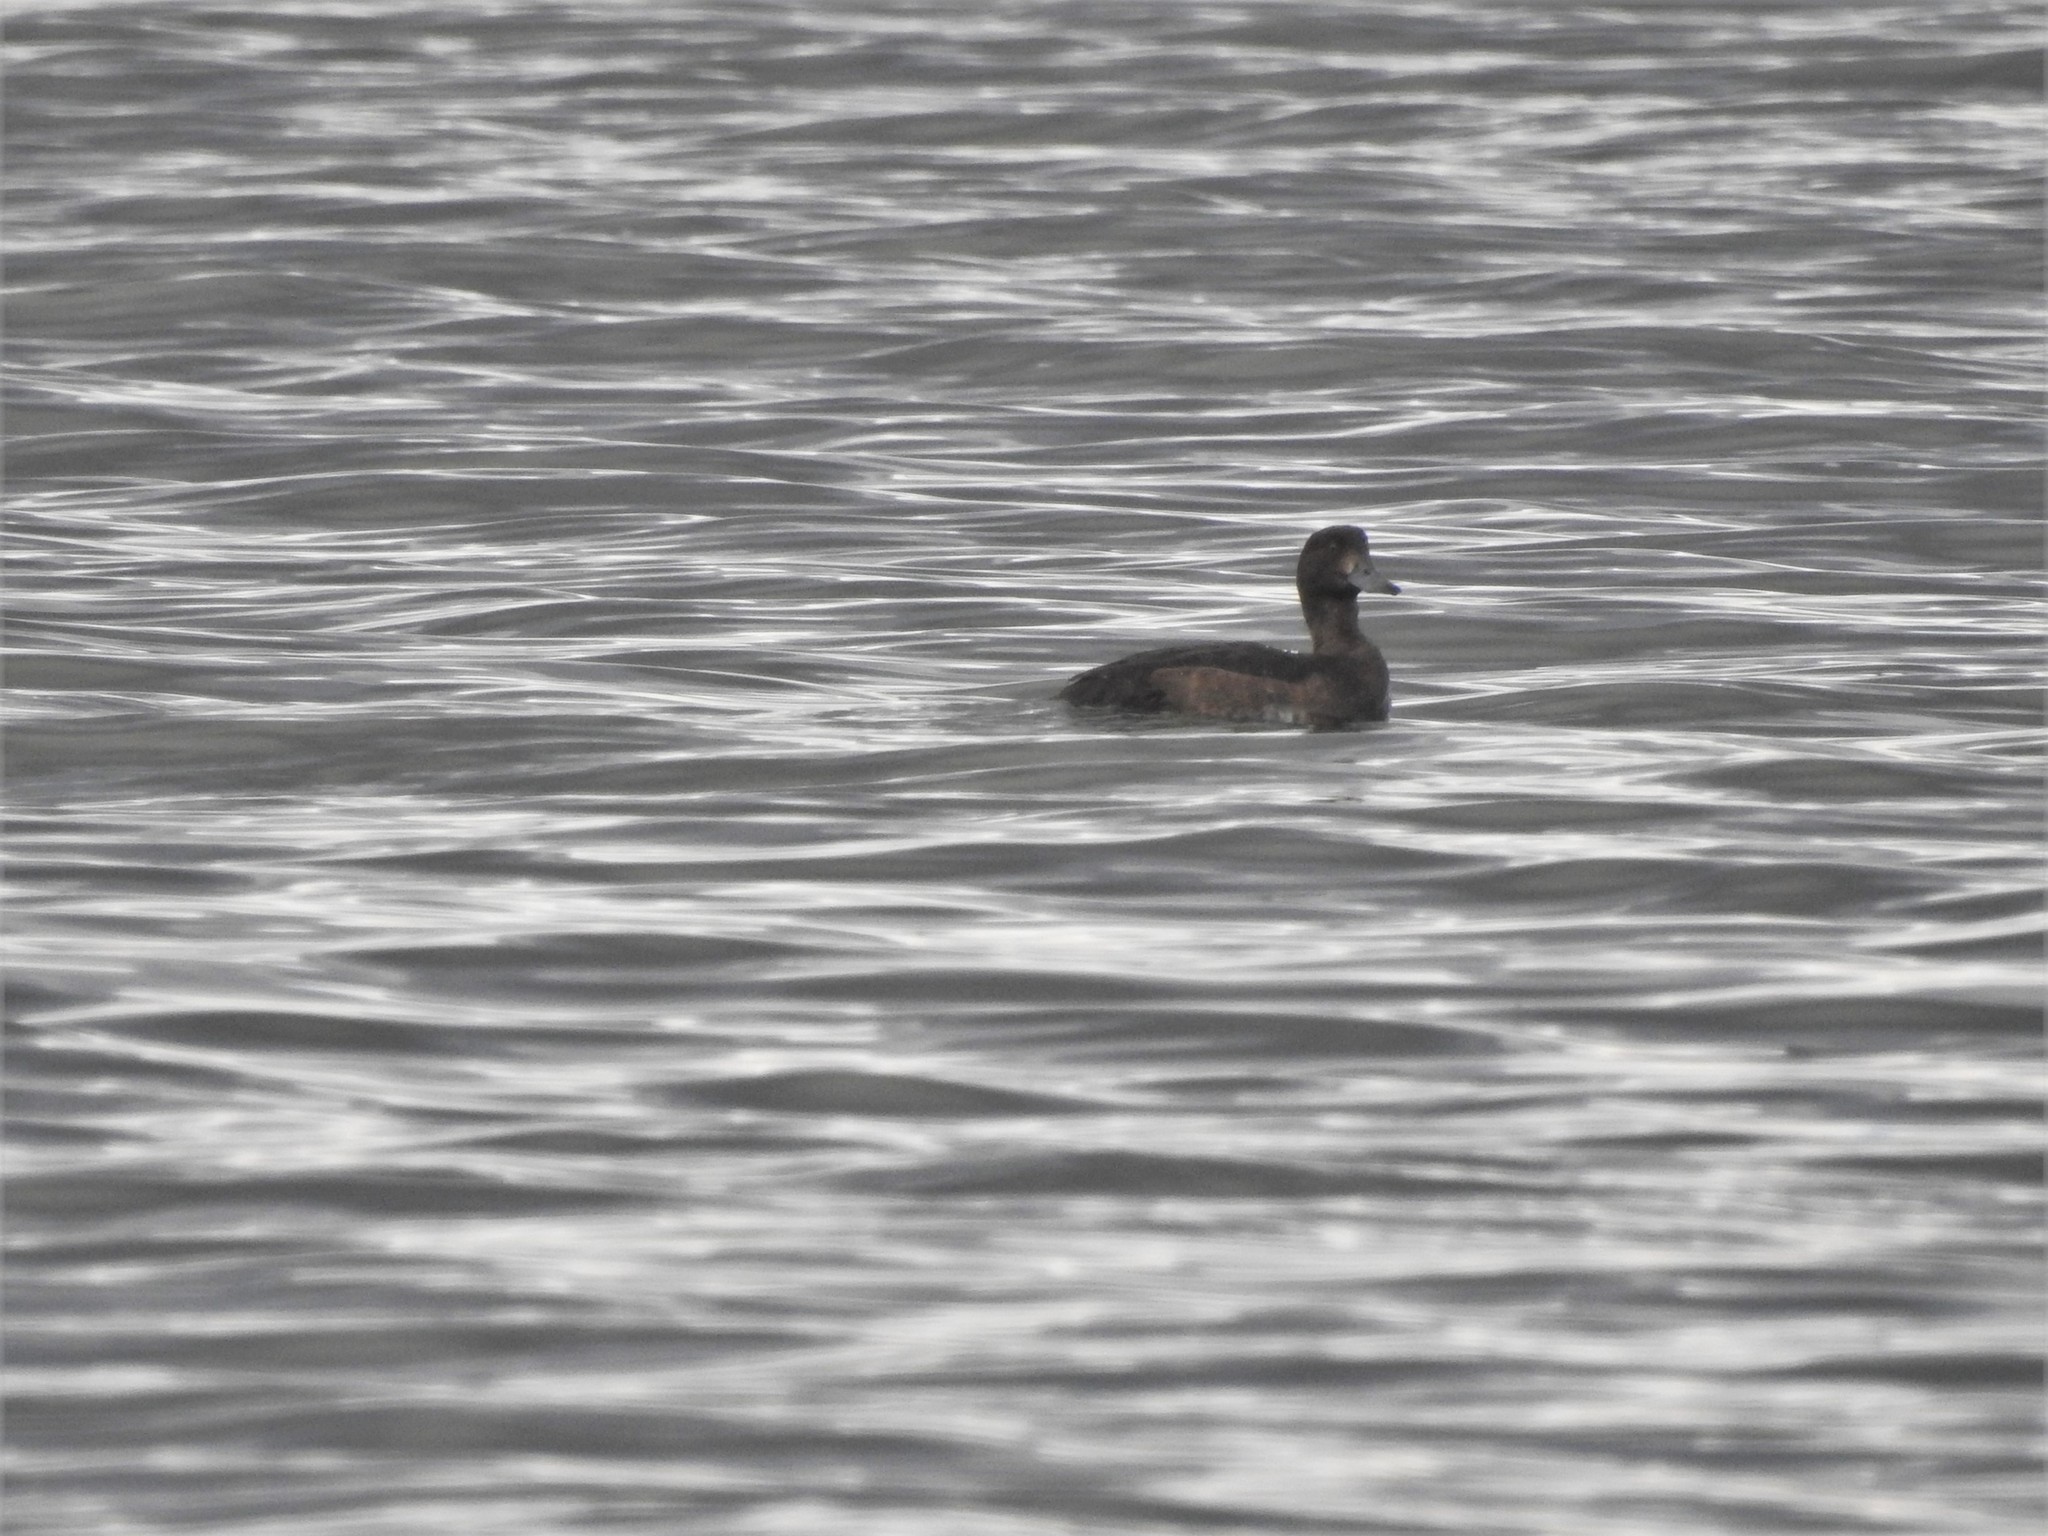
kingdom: Animalia
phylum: Chordata
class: Aves
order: Anseriformes
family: Anatidae
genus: Aythya
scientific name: Aythya fuligula
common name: Tufted duck
